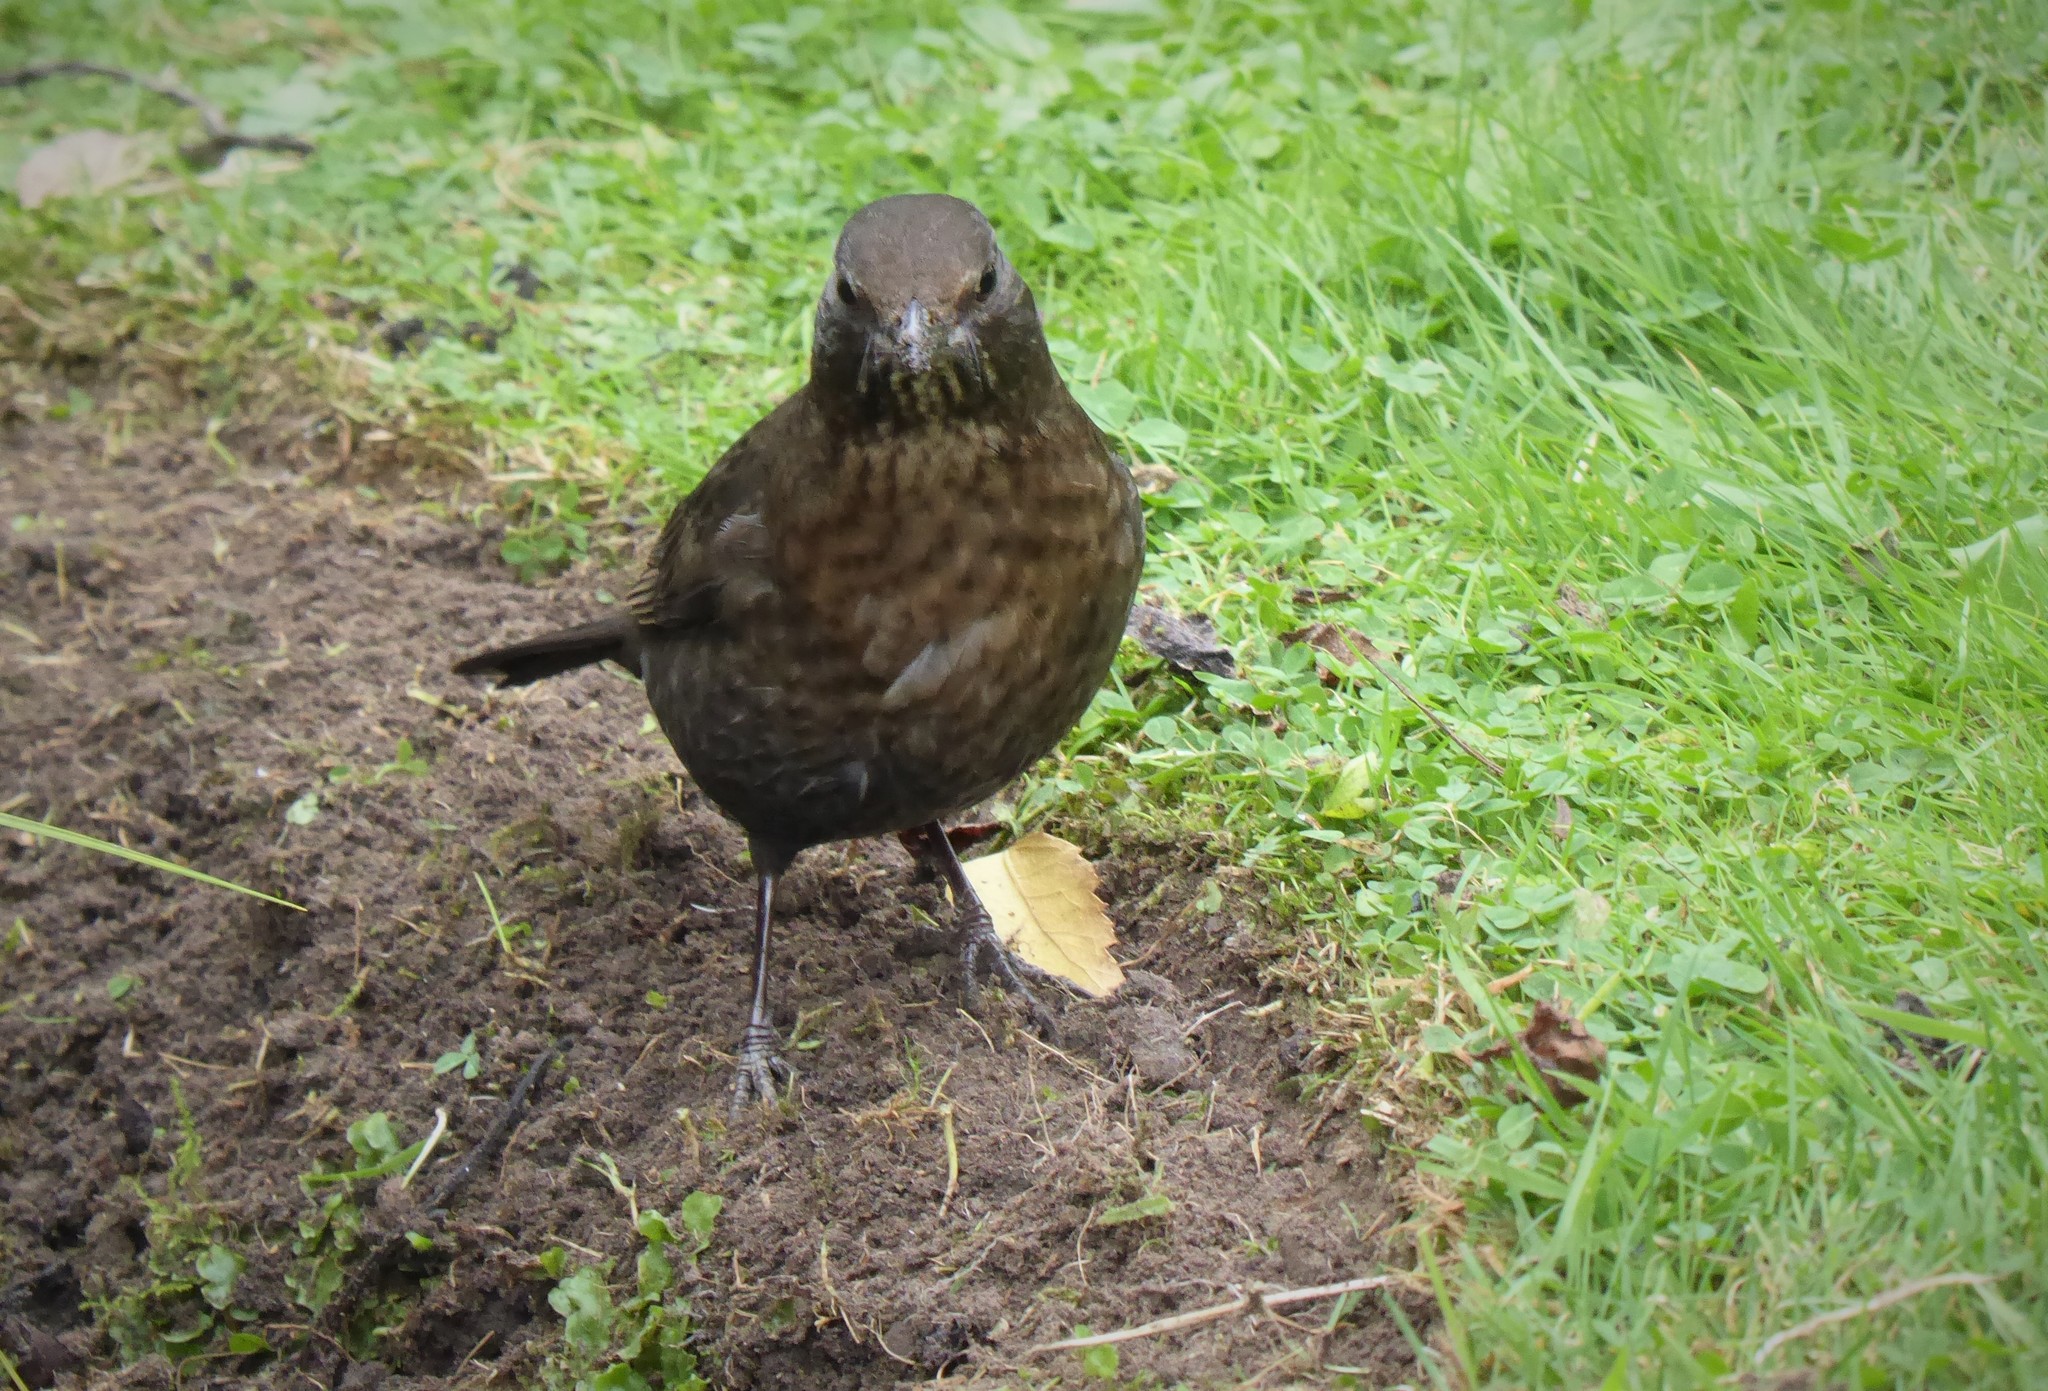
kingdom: Animalia
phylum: Chordata
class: Aves
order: Passeriformes
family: Turdidae
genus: Turdus
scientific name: Turdus merula
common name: Common blackbird
